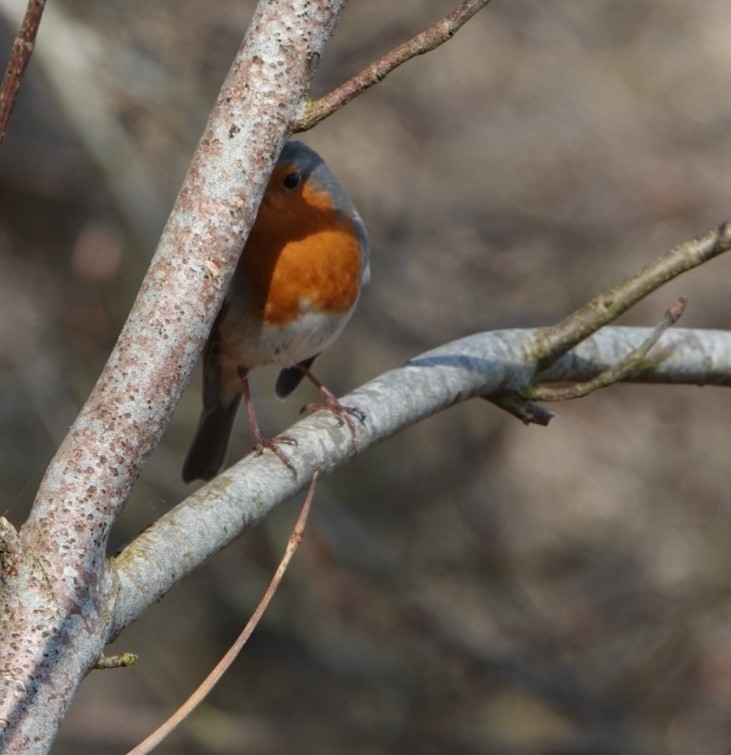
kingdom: Animalia
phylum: Chordata
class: Aves
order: Passeriformes
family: Muscicapidae
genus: Erithacus
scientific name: Erithacus rubecula
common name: European robin
